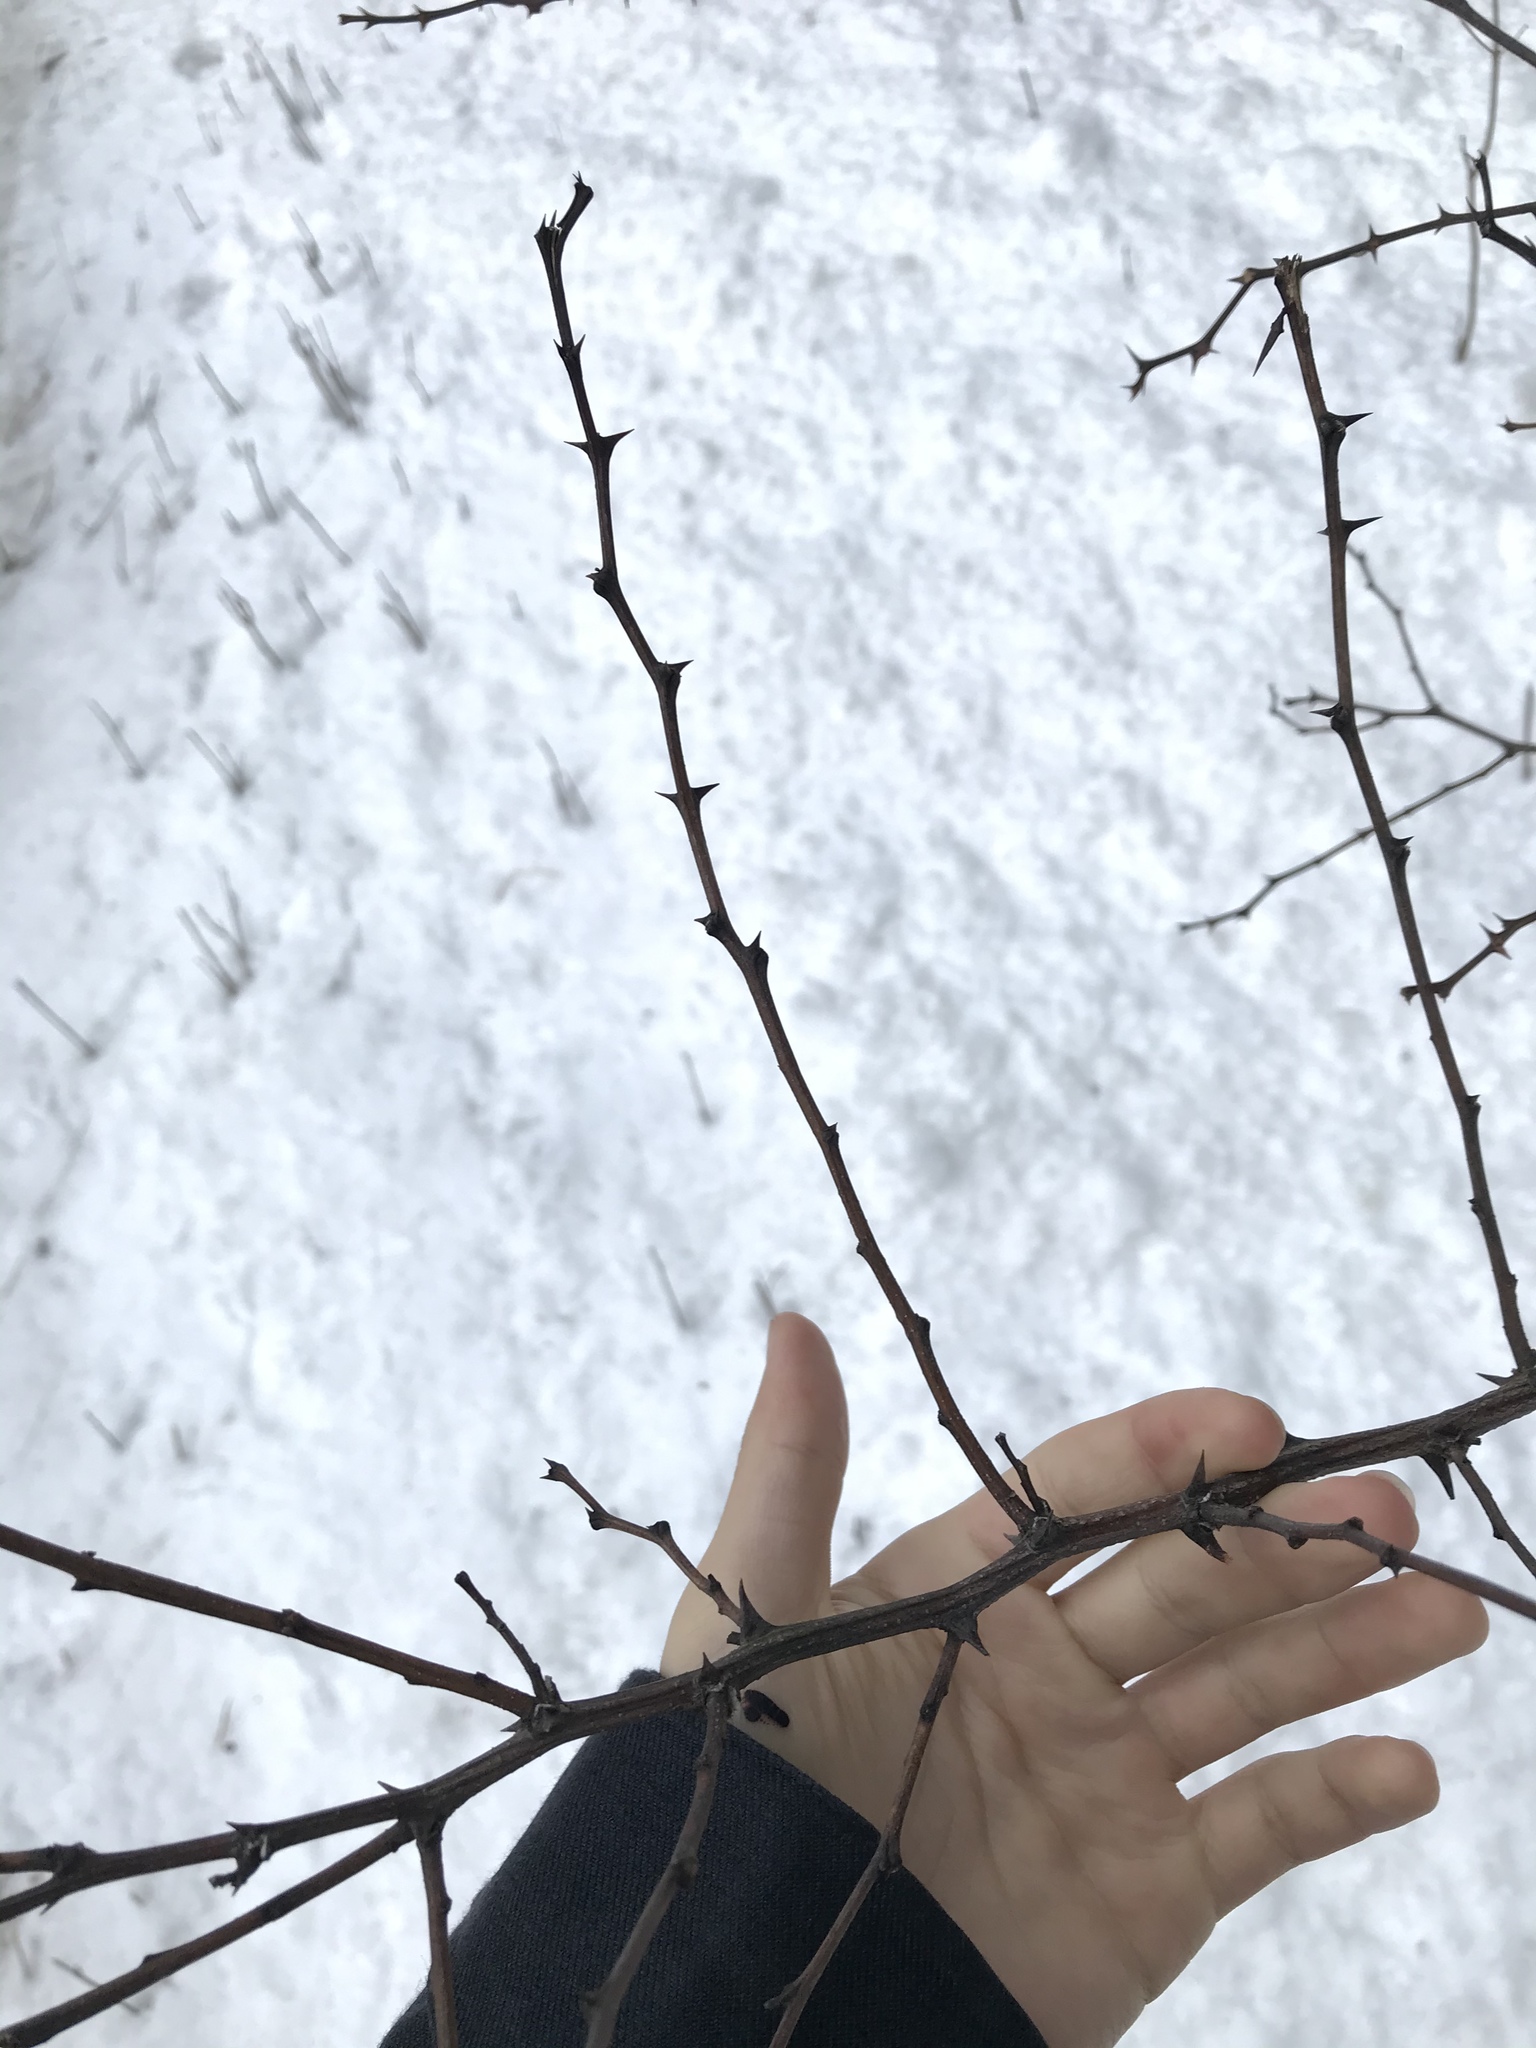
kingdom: Plantae
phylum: Tracheophyta
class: Magnoliopsida
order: Fabales
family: Fabaceae
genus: Robinia
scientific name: Robinia pseudoacacia
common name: Black locust
